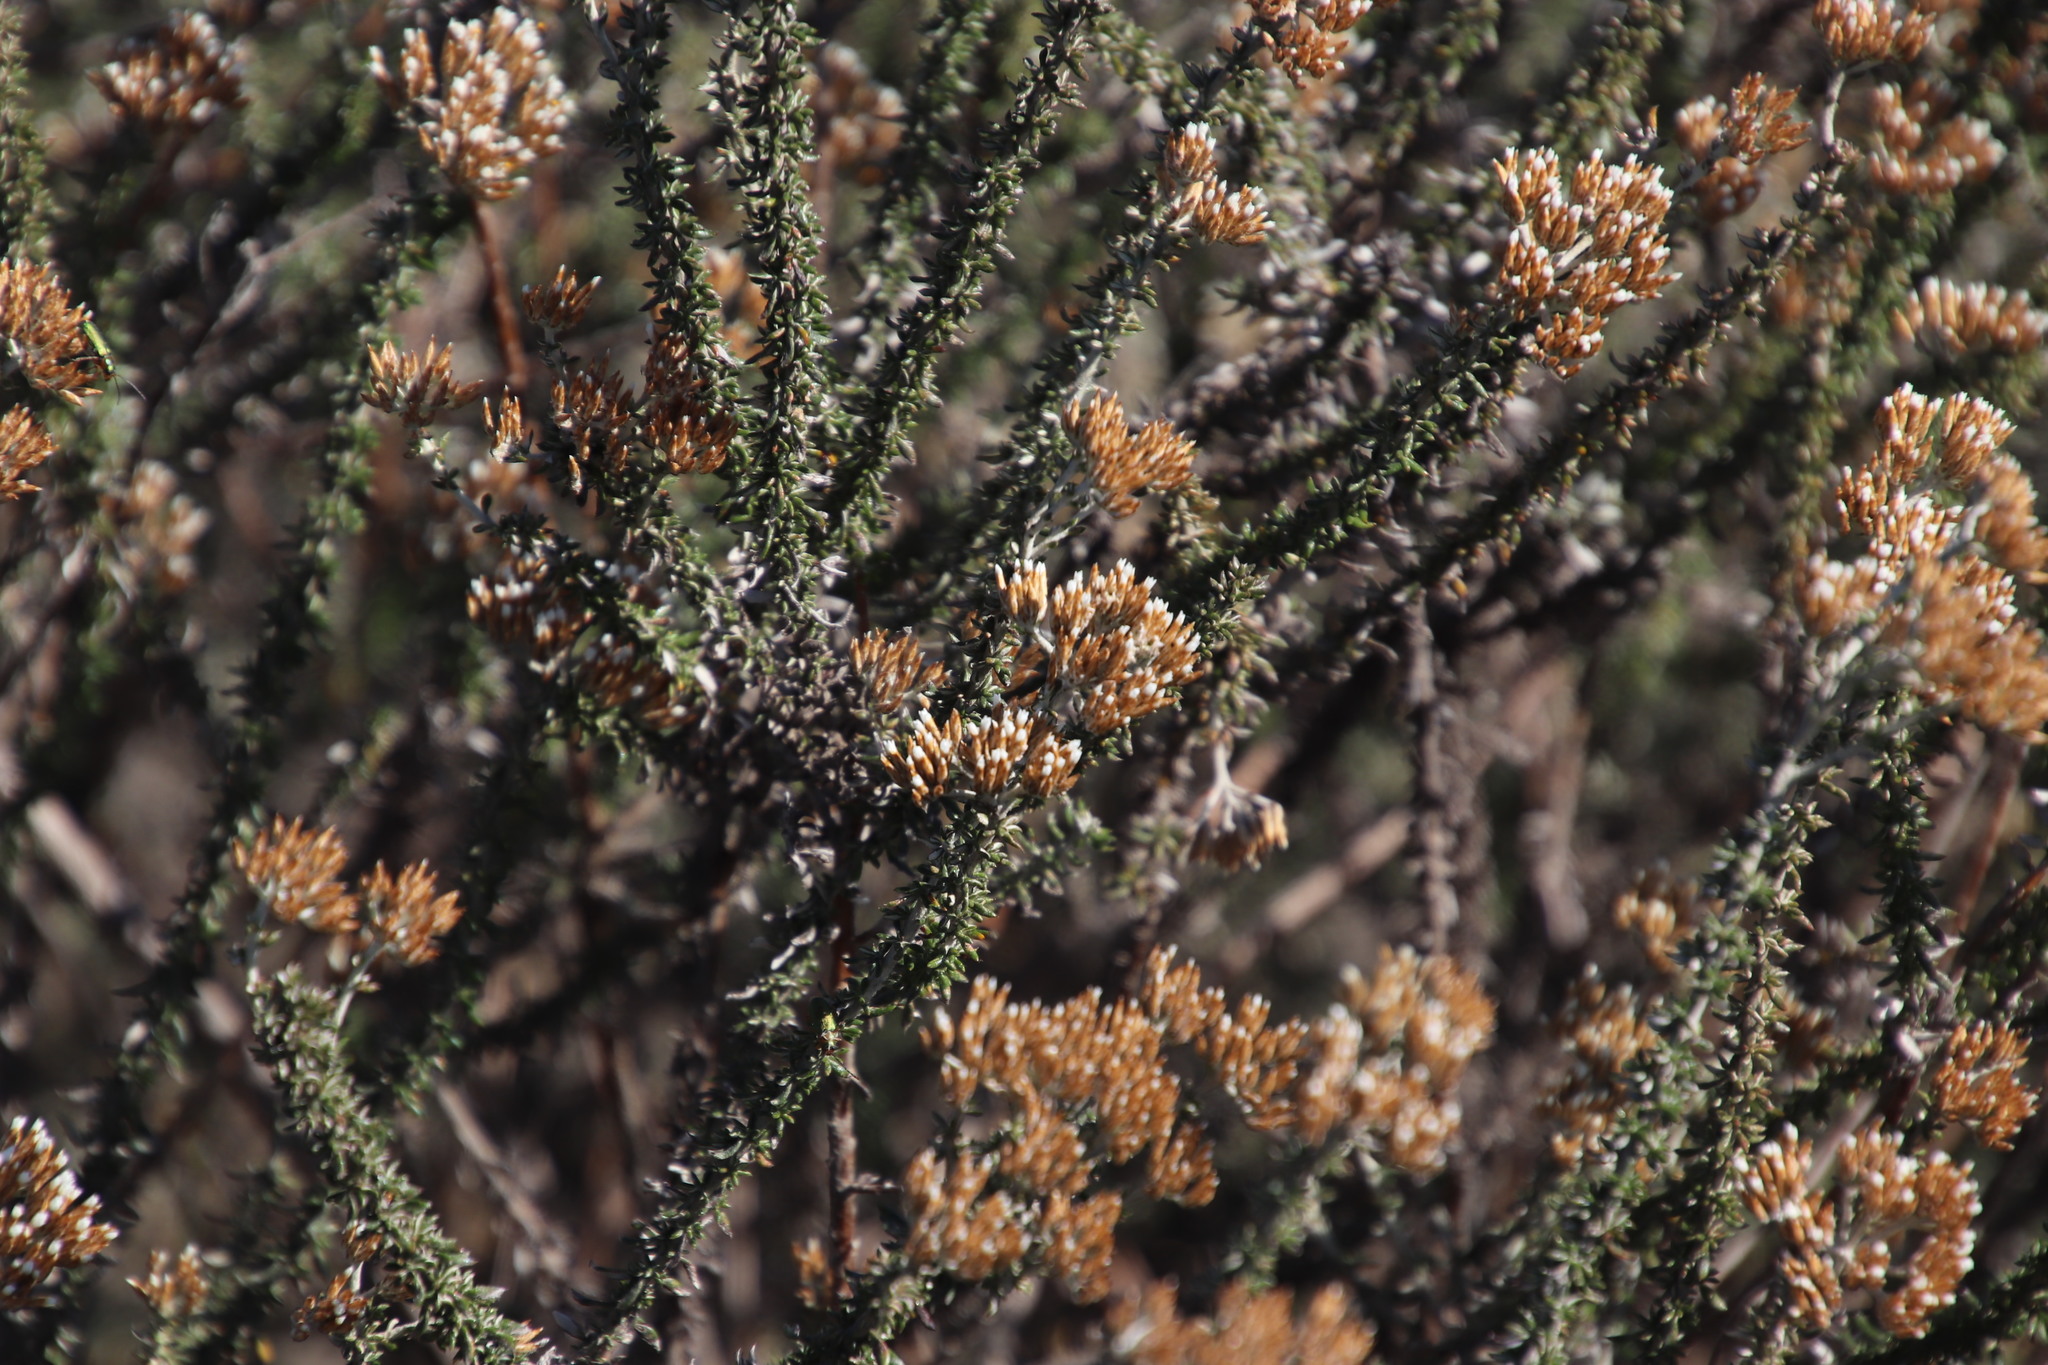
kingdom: Plantae
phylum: Tracheophyta
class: Magnoliopsida
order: Asterales
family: Asteraceae
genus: Metalasia
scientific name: Metalasia densa
